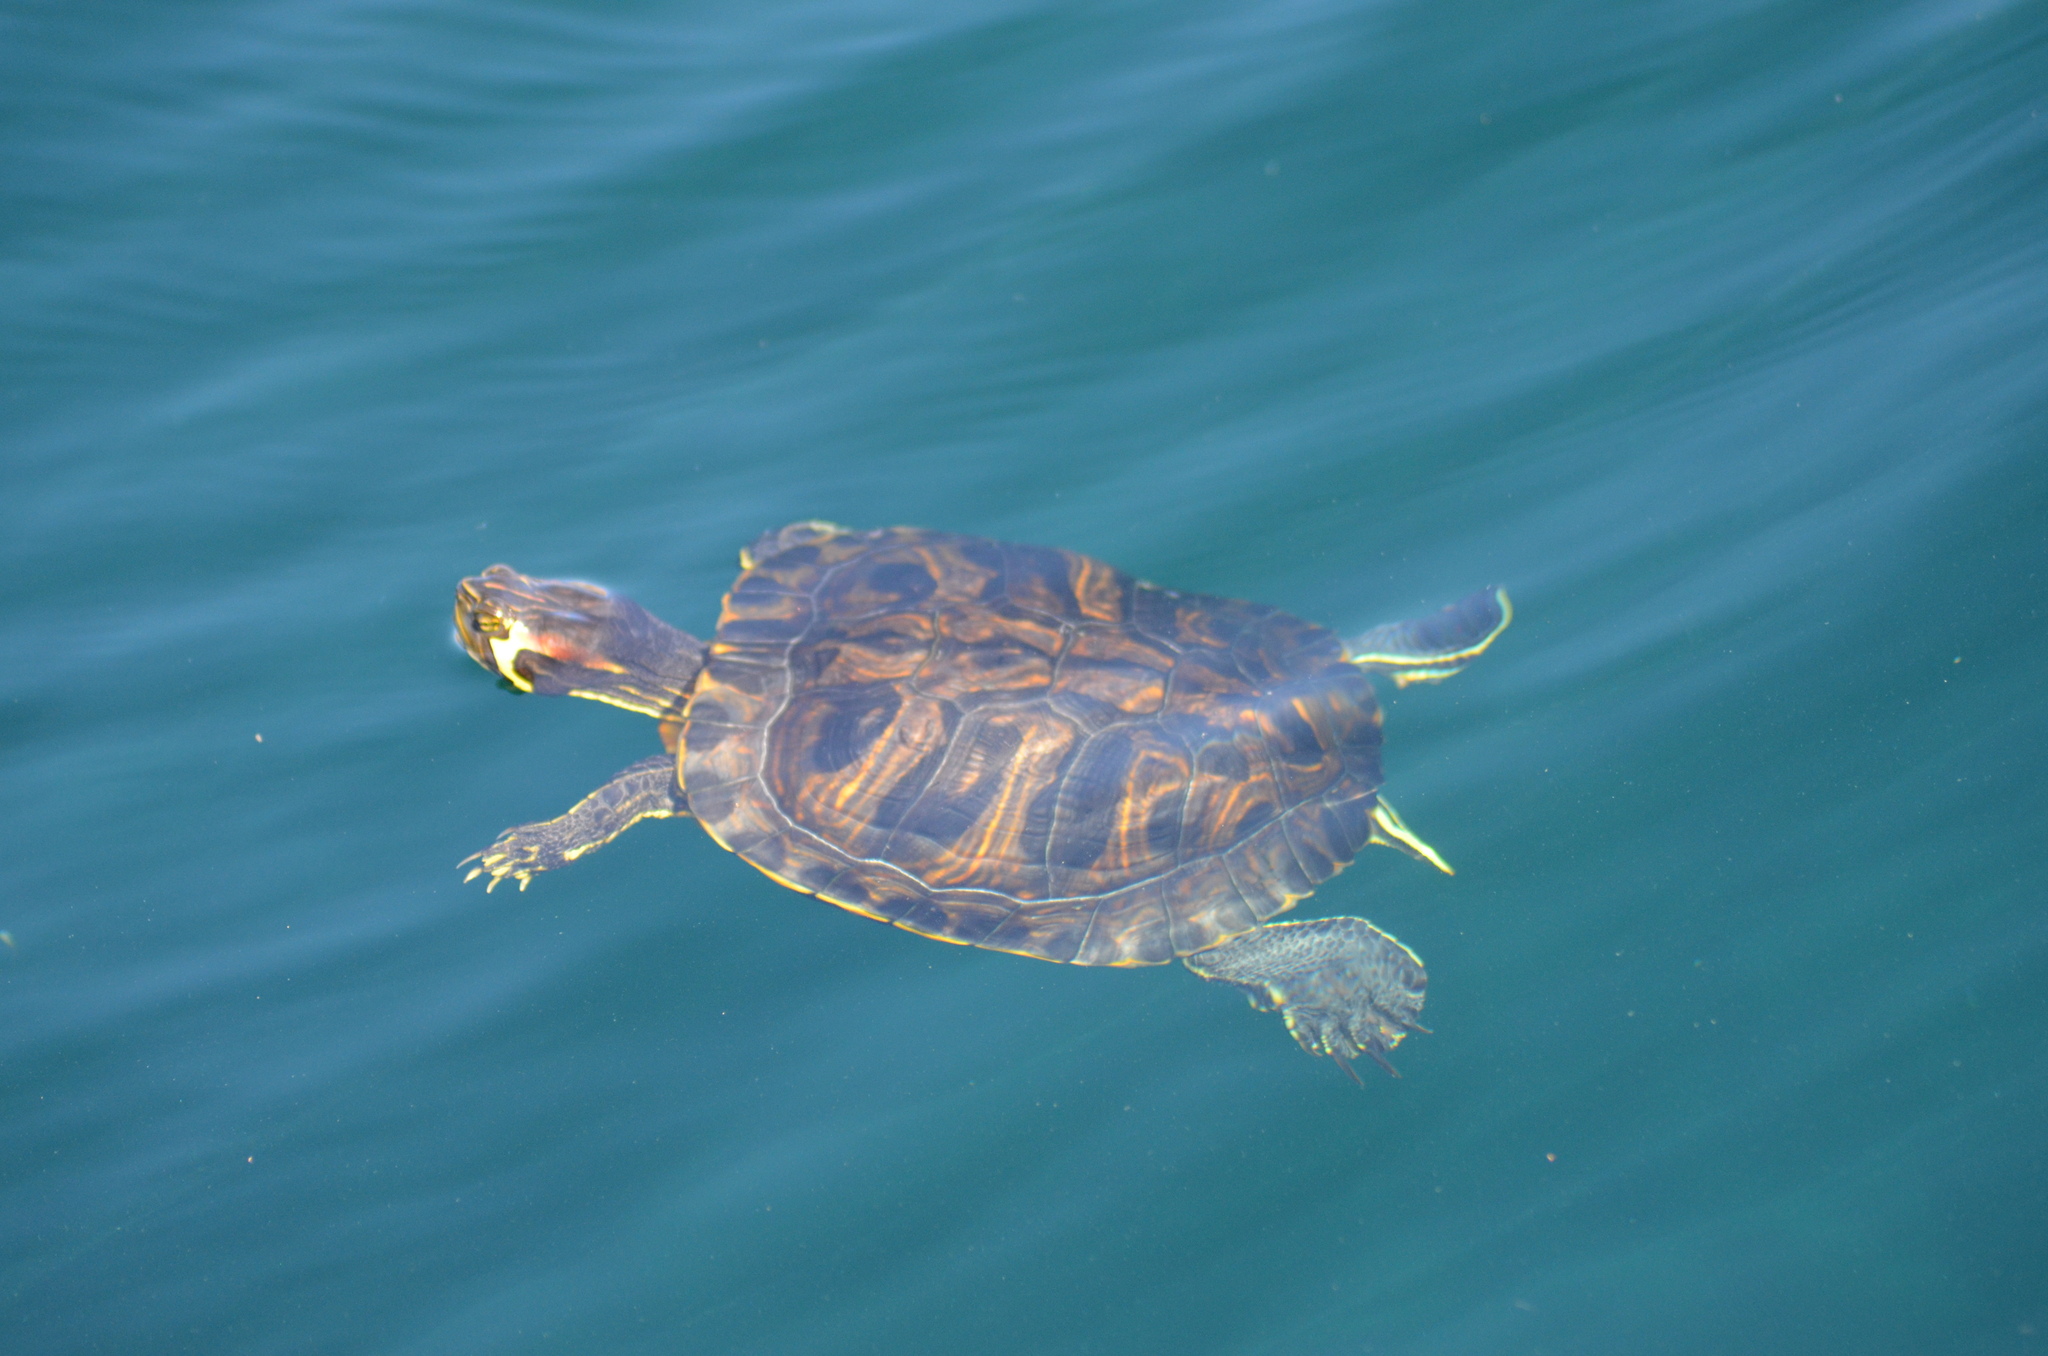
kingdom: Animalia
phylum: Chordata
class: Testudines
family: Emydidae
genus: Trachemys
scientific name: Trachemys scripta
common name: Slider
